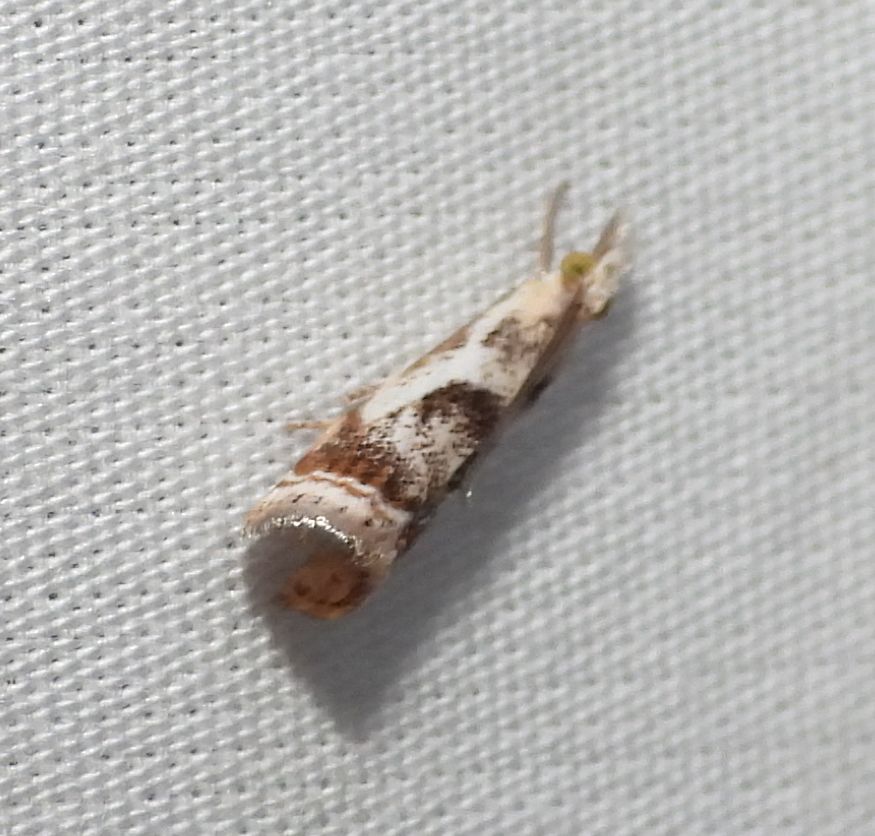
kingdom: Animalia
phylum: Arthropoda
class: Insecta
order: Lepidoptera
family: Crambidae
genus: Microcrambus
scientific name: Microcrambus elegans
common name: Elegant grass-veneer
